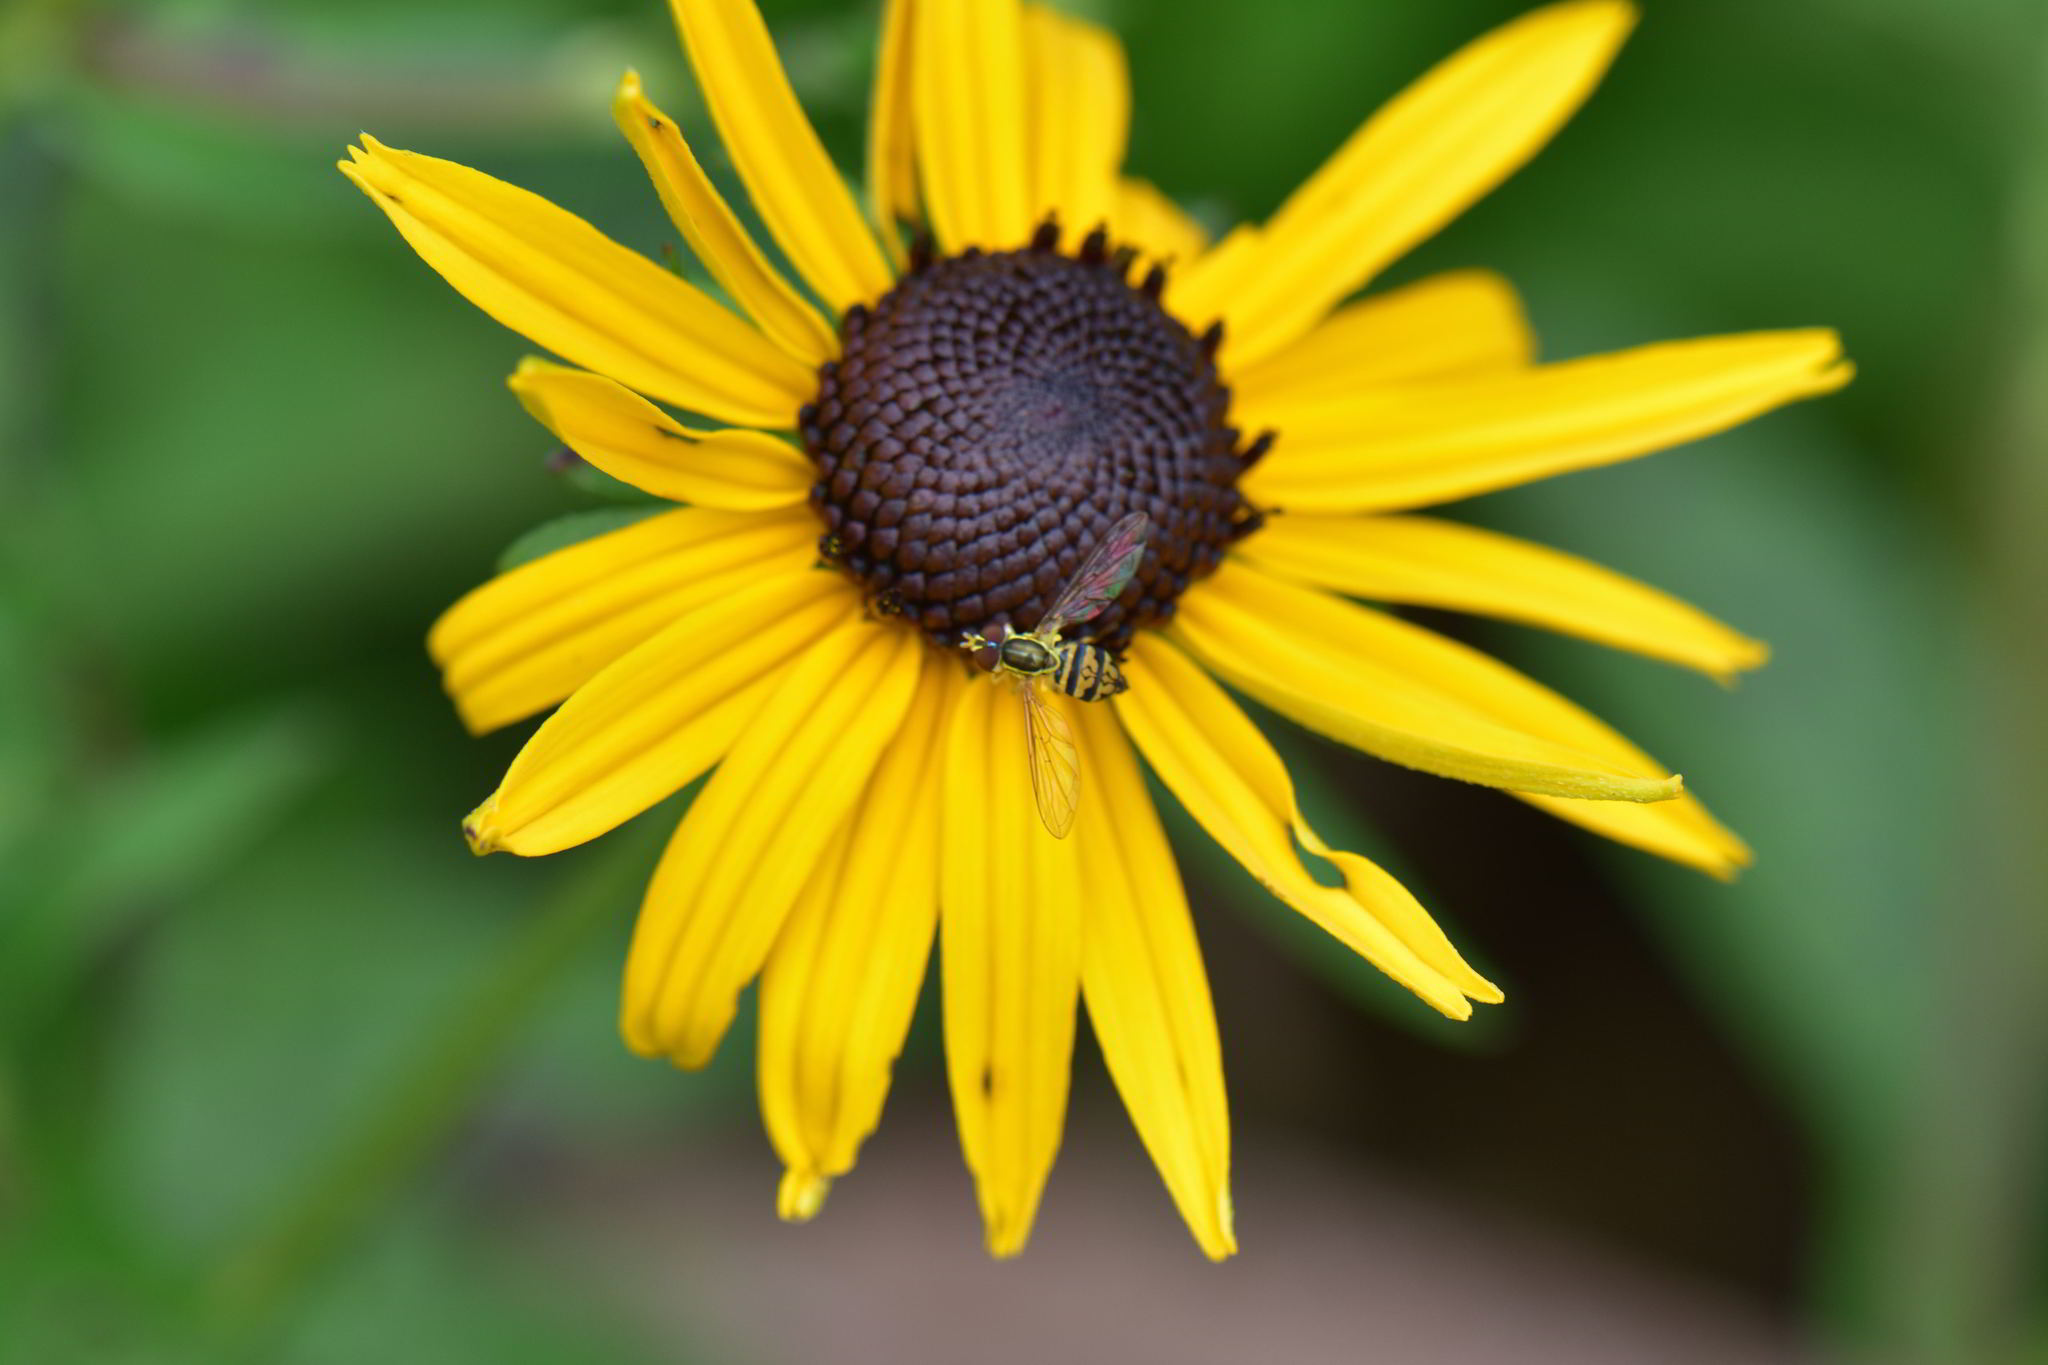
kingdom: Animalia
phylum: Arthropoda
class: Insecta
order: Diptera
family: Syrphidae
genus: Toxomerus
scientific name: Toxomerus geminatus
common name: Eastern calligrapher
